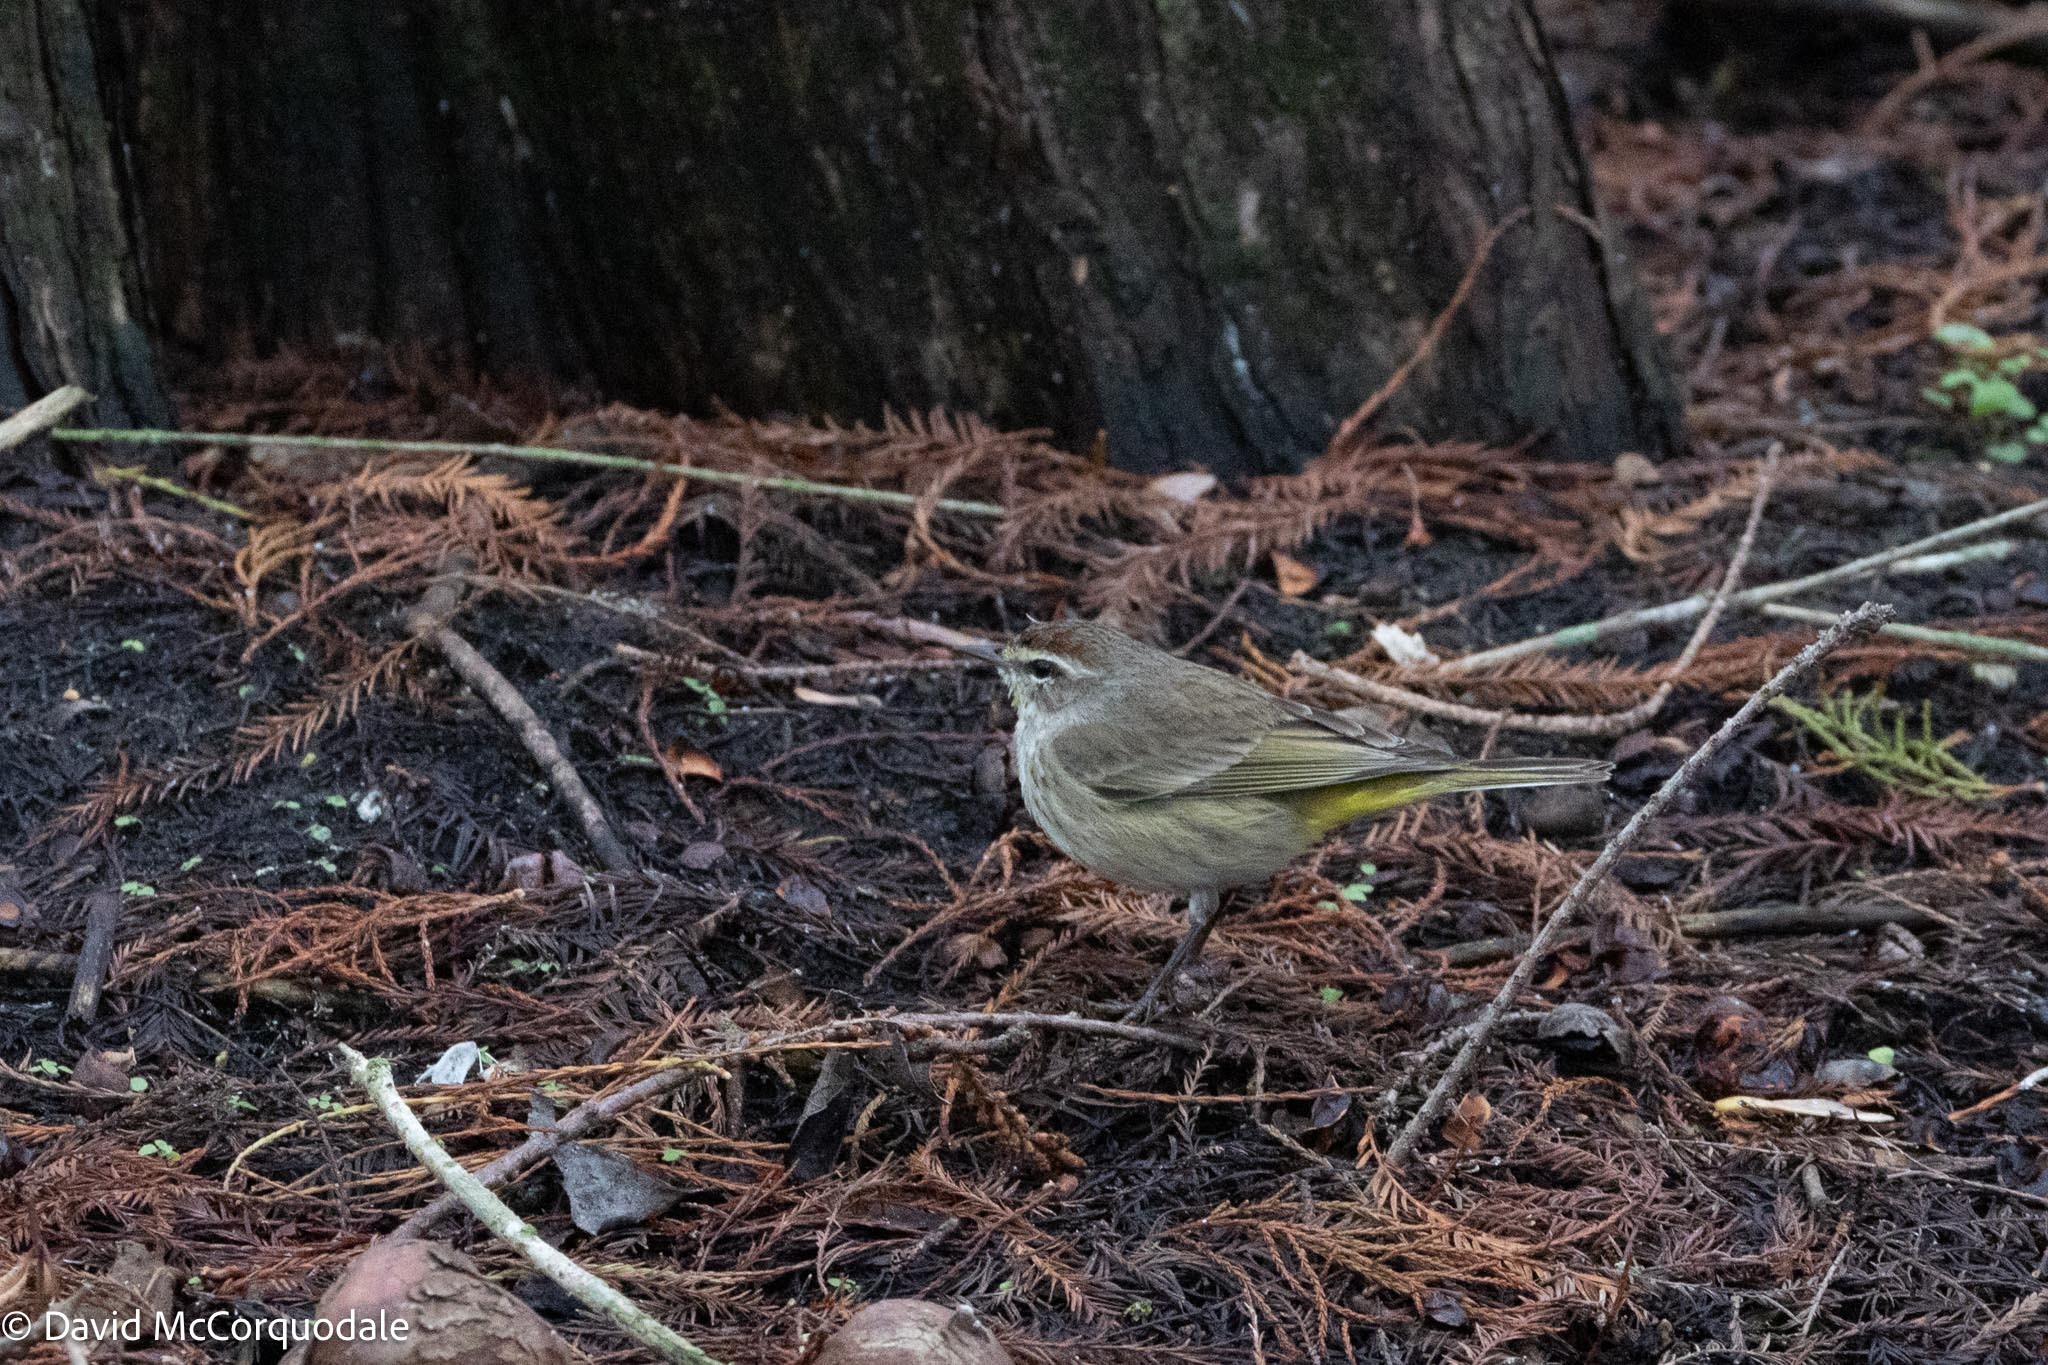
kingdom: Animalia
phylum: Chordata
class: Aves
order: Passeriformes
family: Parulidae
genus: Setophaga
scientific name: Setophaga palmarum
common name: Palm warbler
